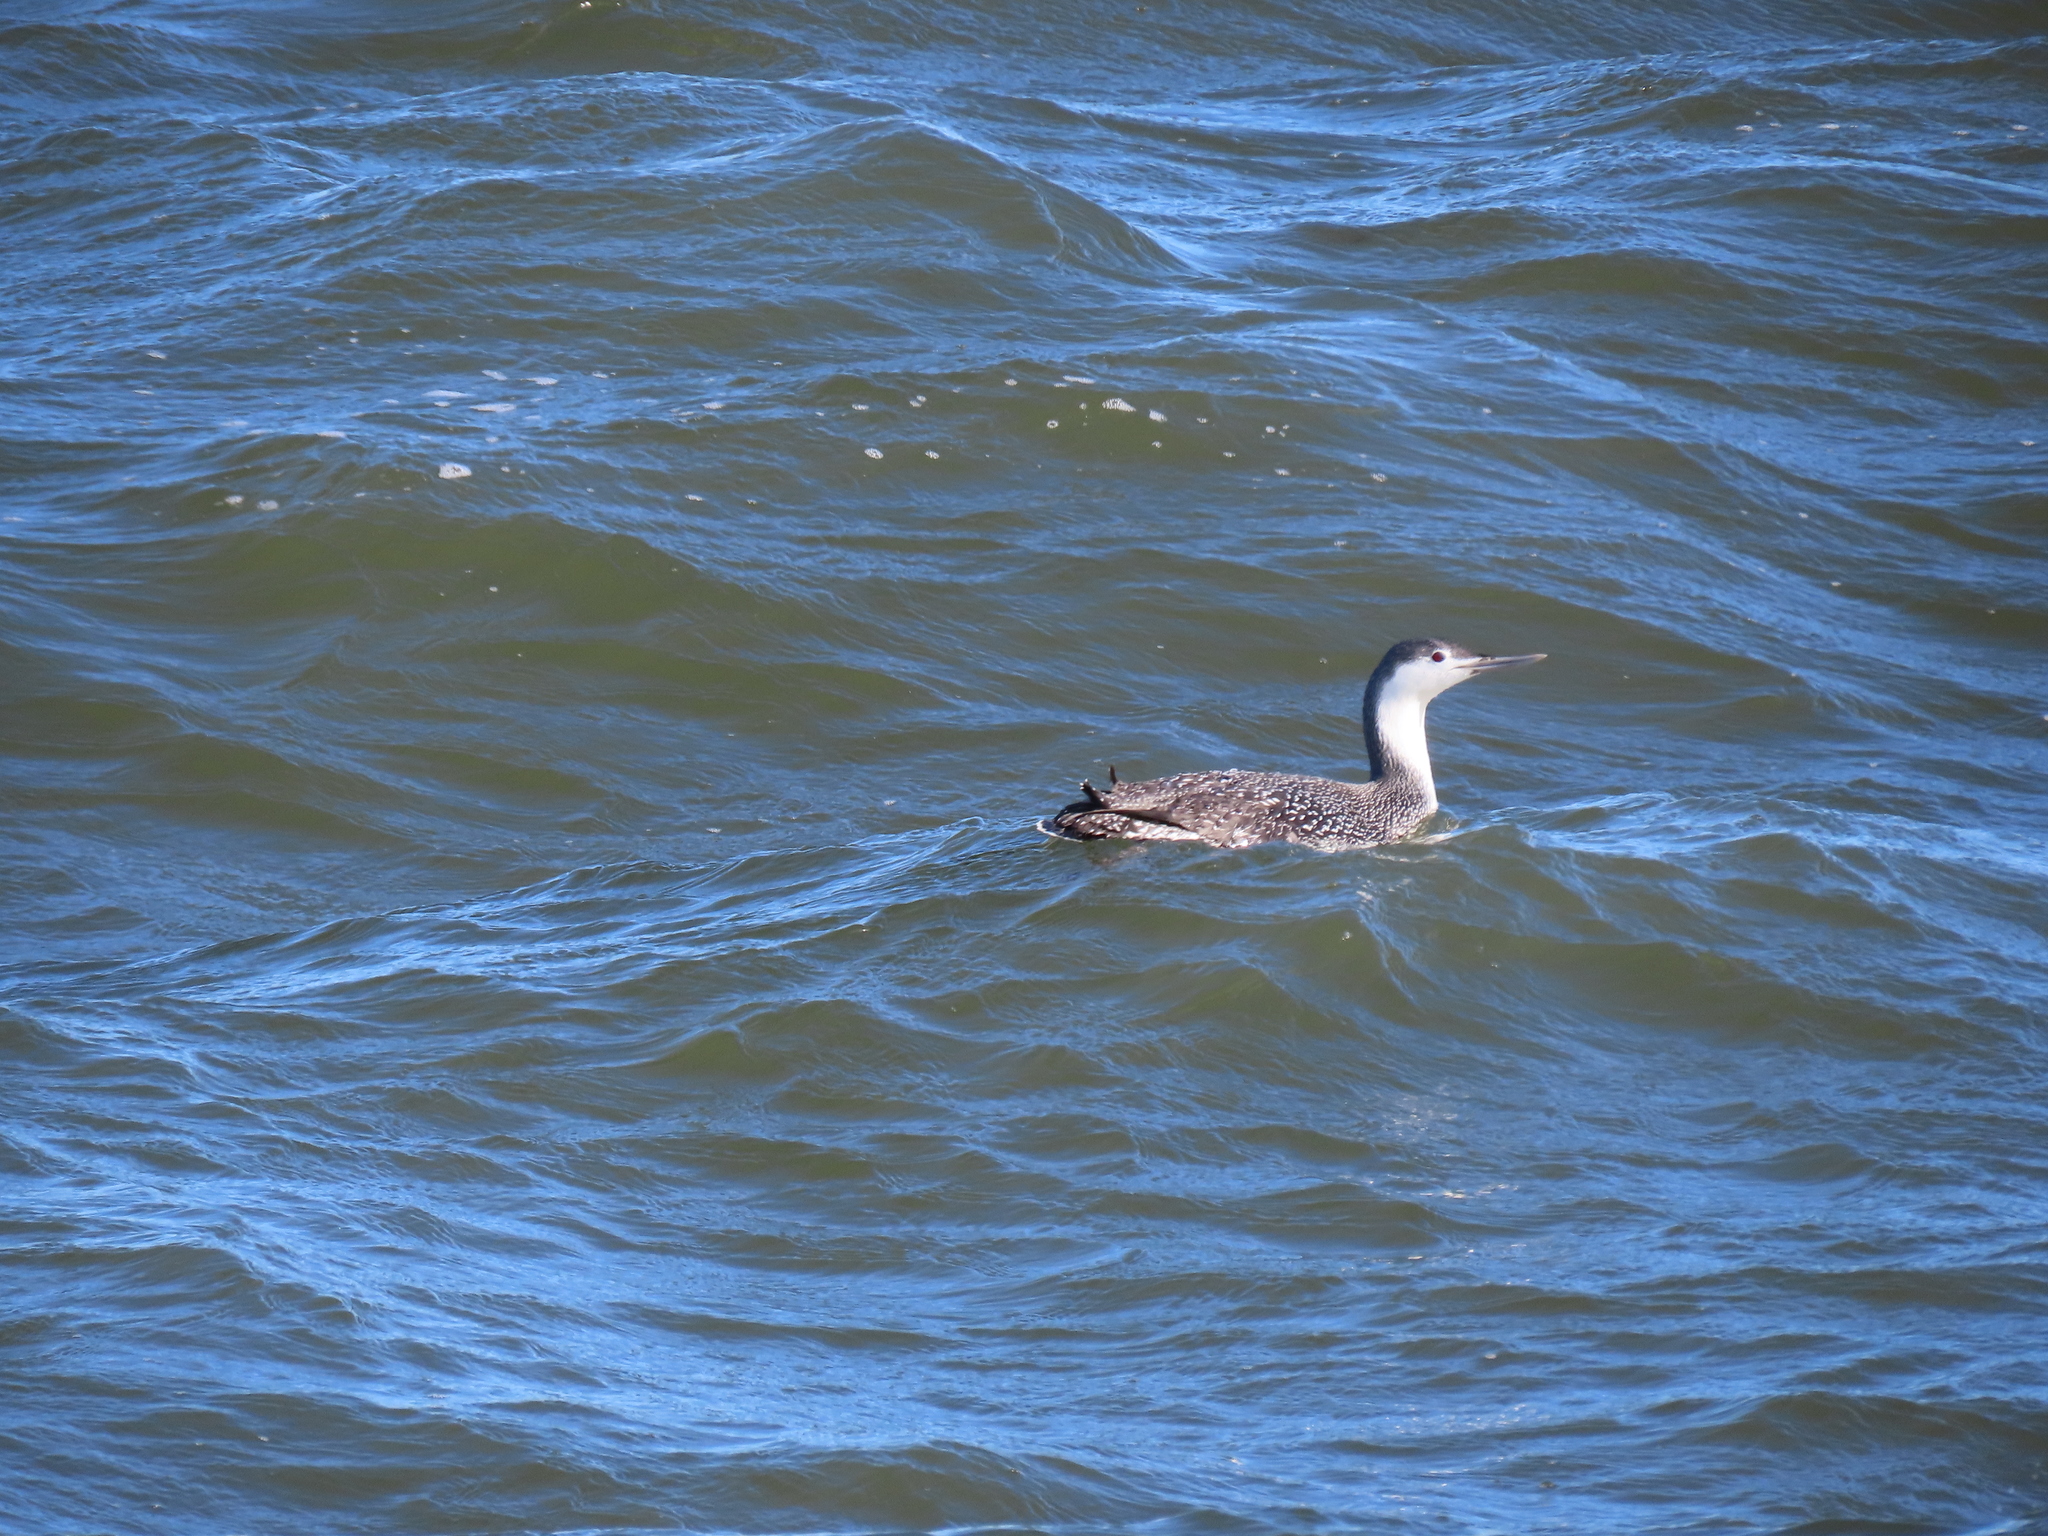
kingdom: Animalia
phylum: Chordata
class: Aves
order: Gaviiformes
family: Gaviidae
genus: Gavia
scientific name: Gavia stellata
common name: Red-throated loon
